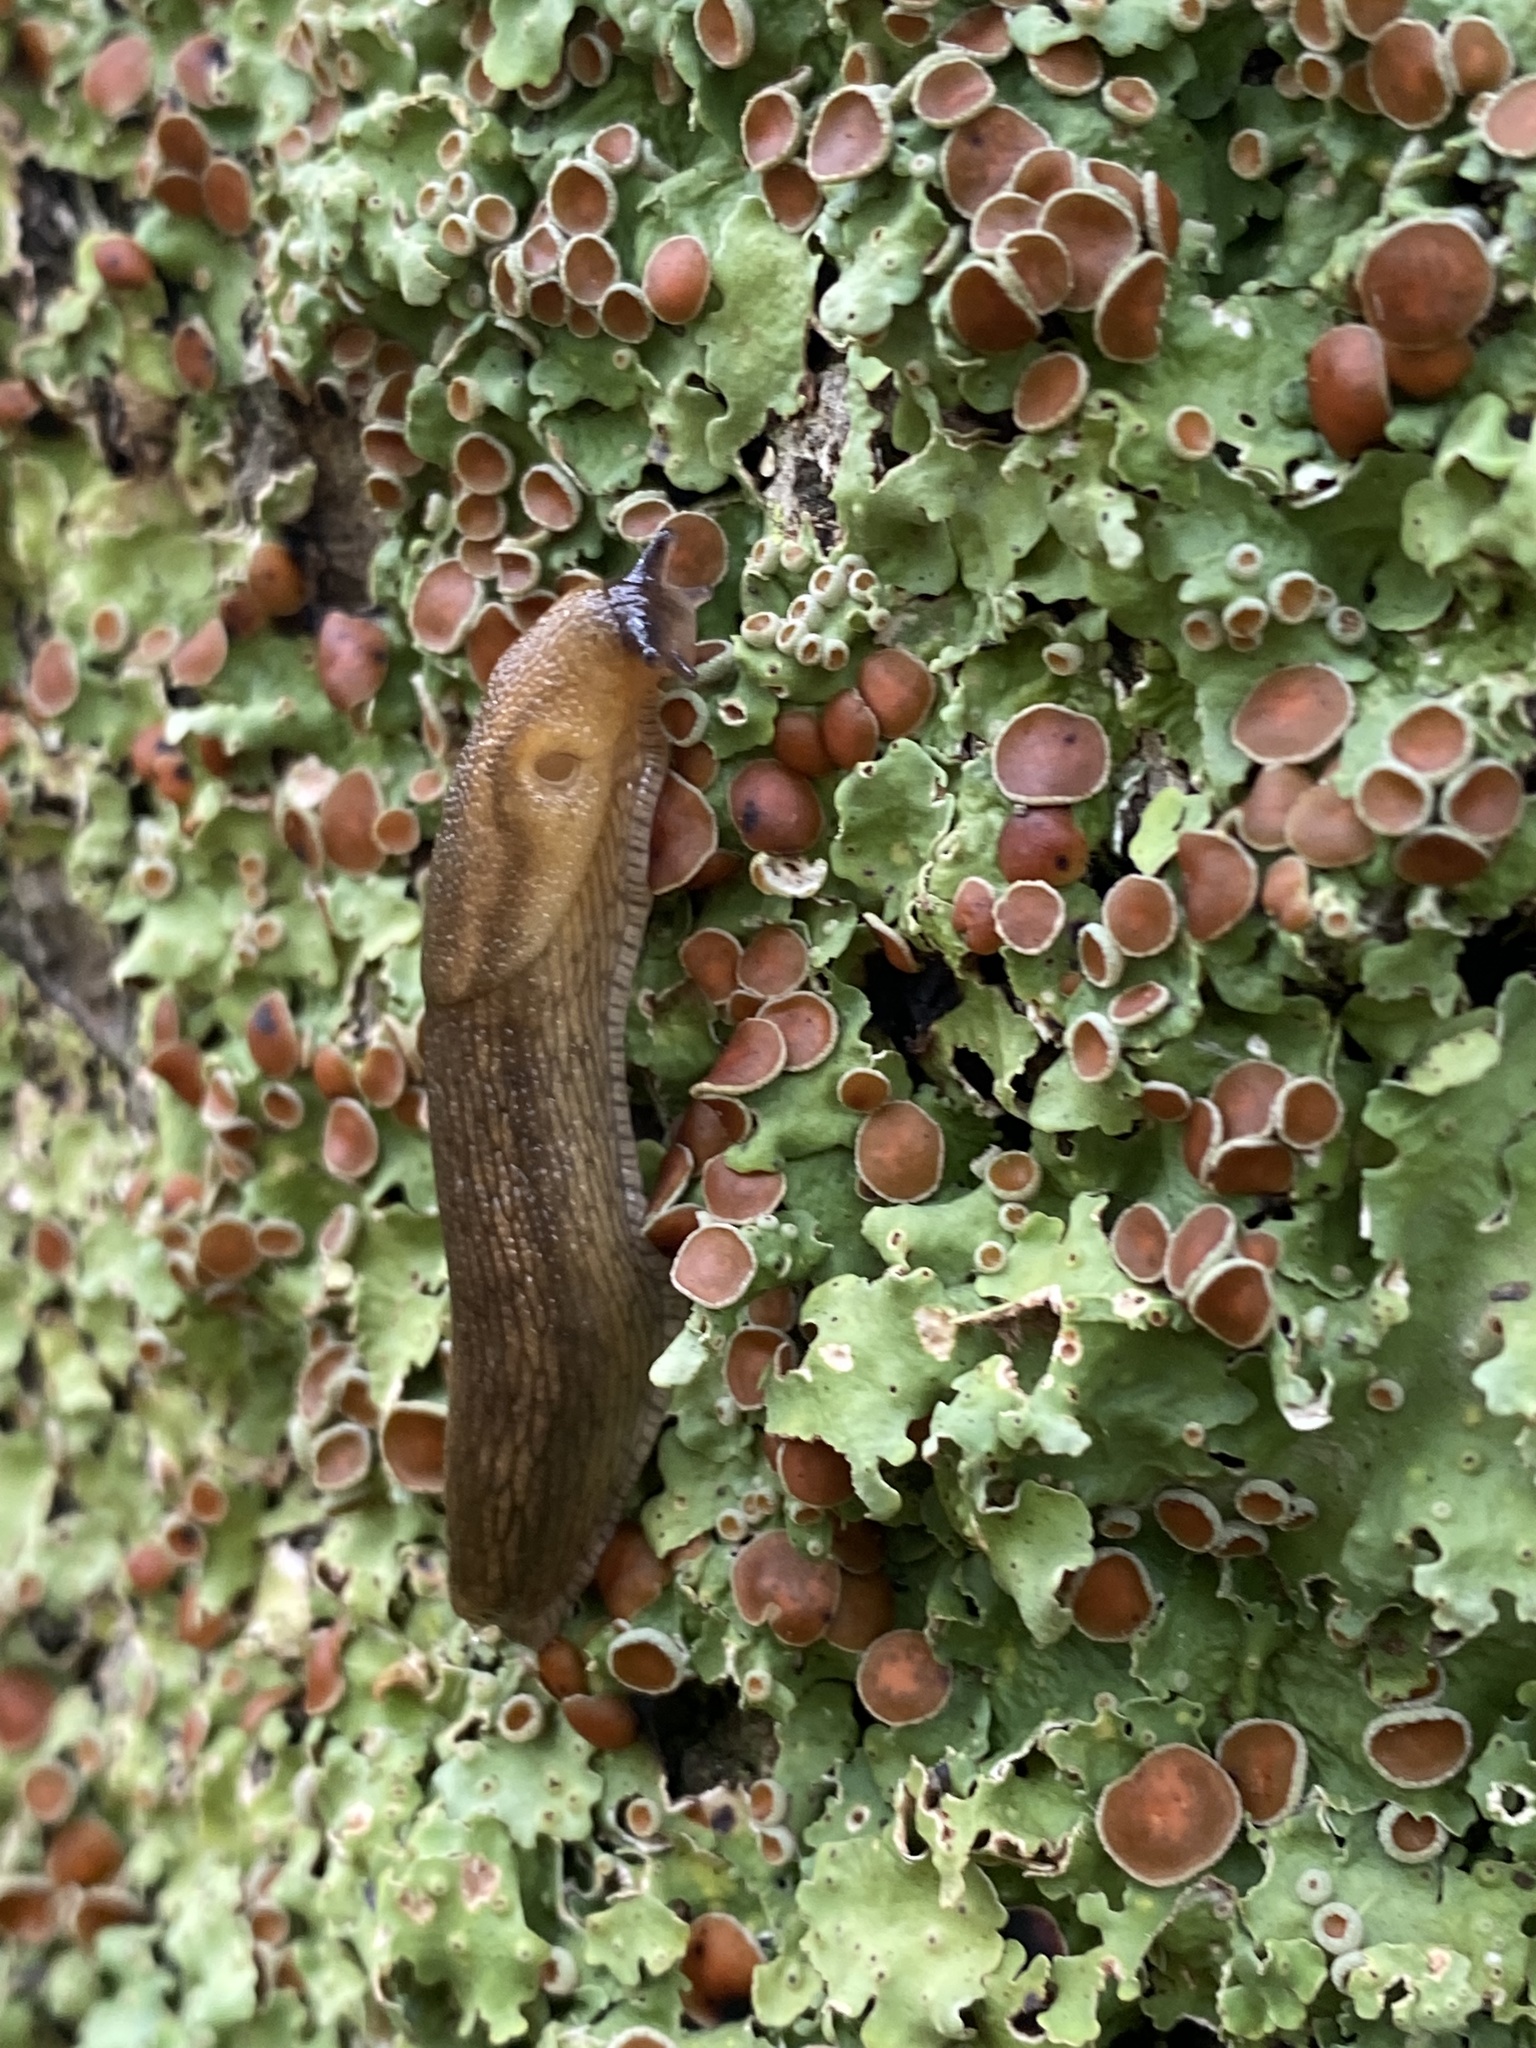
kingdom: Animalia
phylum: Mollusca
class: Gastropoda
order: Stylommatophora
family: Arionidae
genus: Arion
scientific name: Arion subfuscus
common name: Dusky arion
